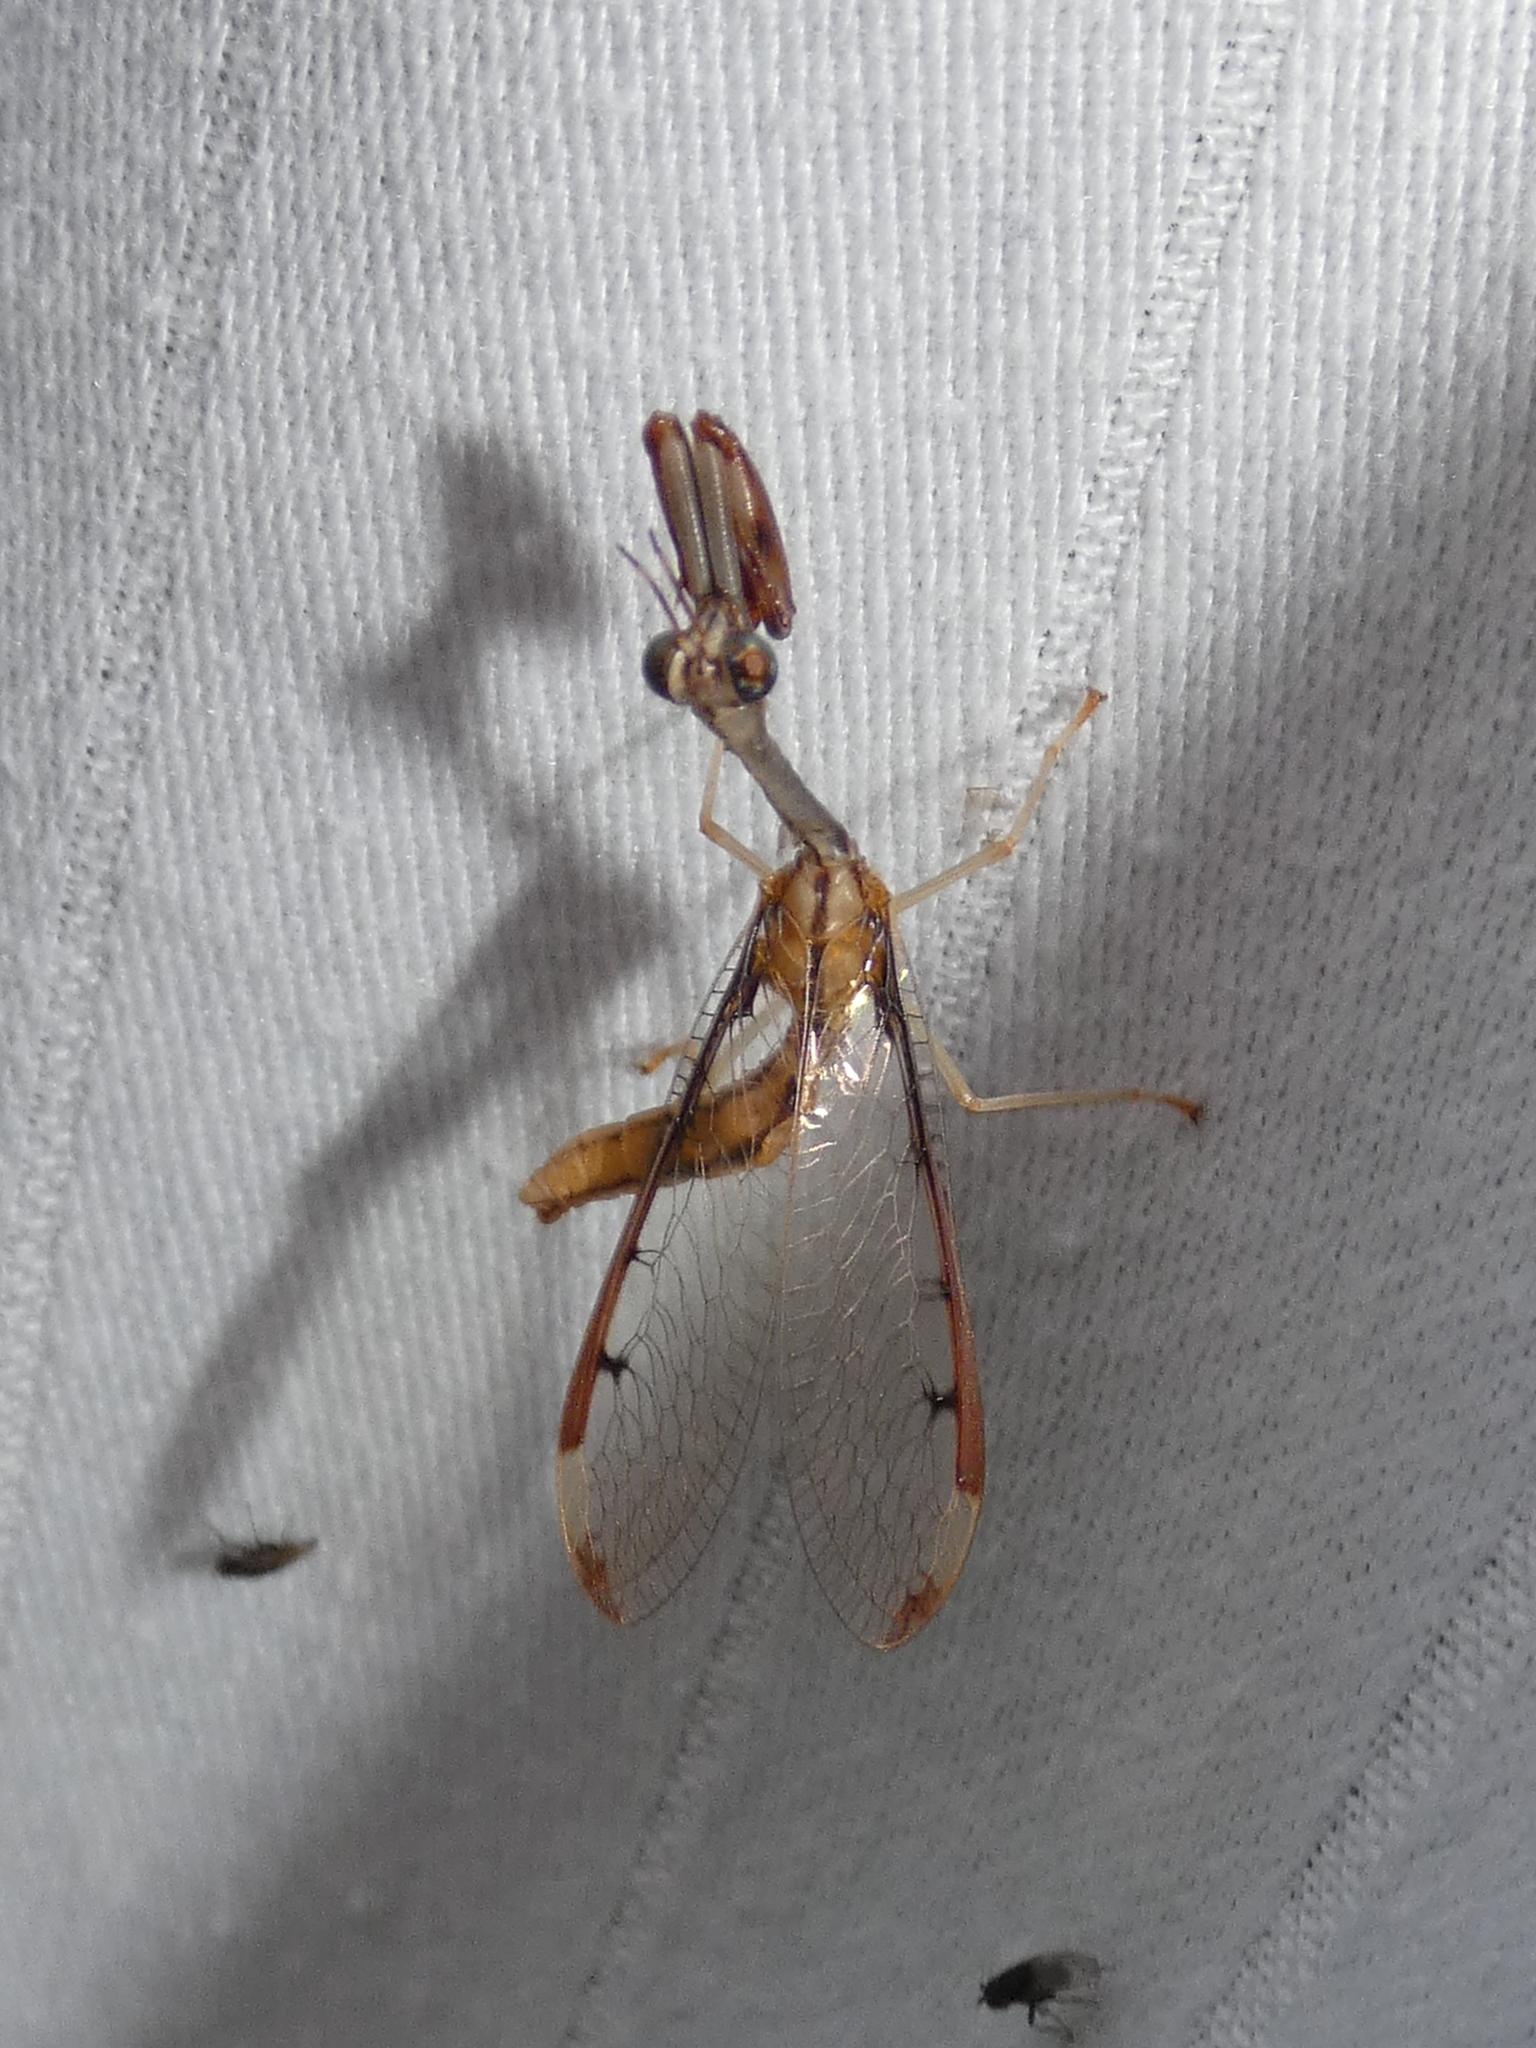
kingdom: Animalia
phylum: Arthropoda
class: Insecta
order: Neuroptera
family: Mantispidae
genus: Dicromantispa
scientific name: Dicromantispa interrupta
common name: Four-spotted mantidfly
